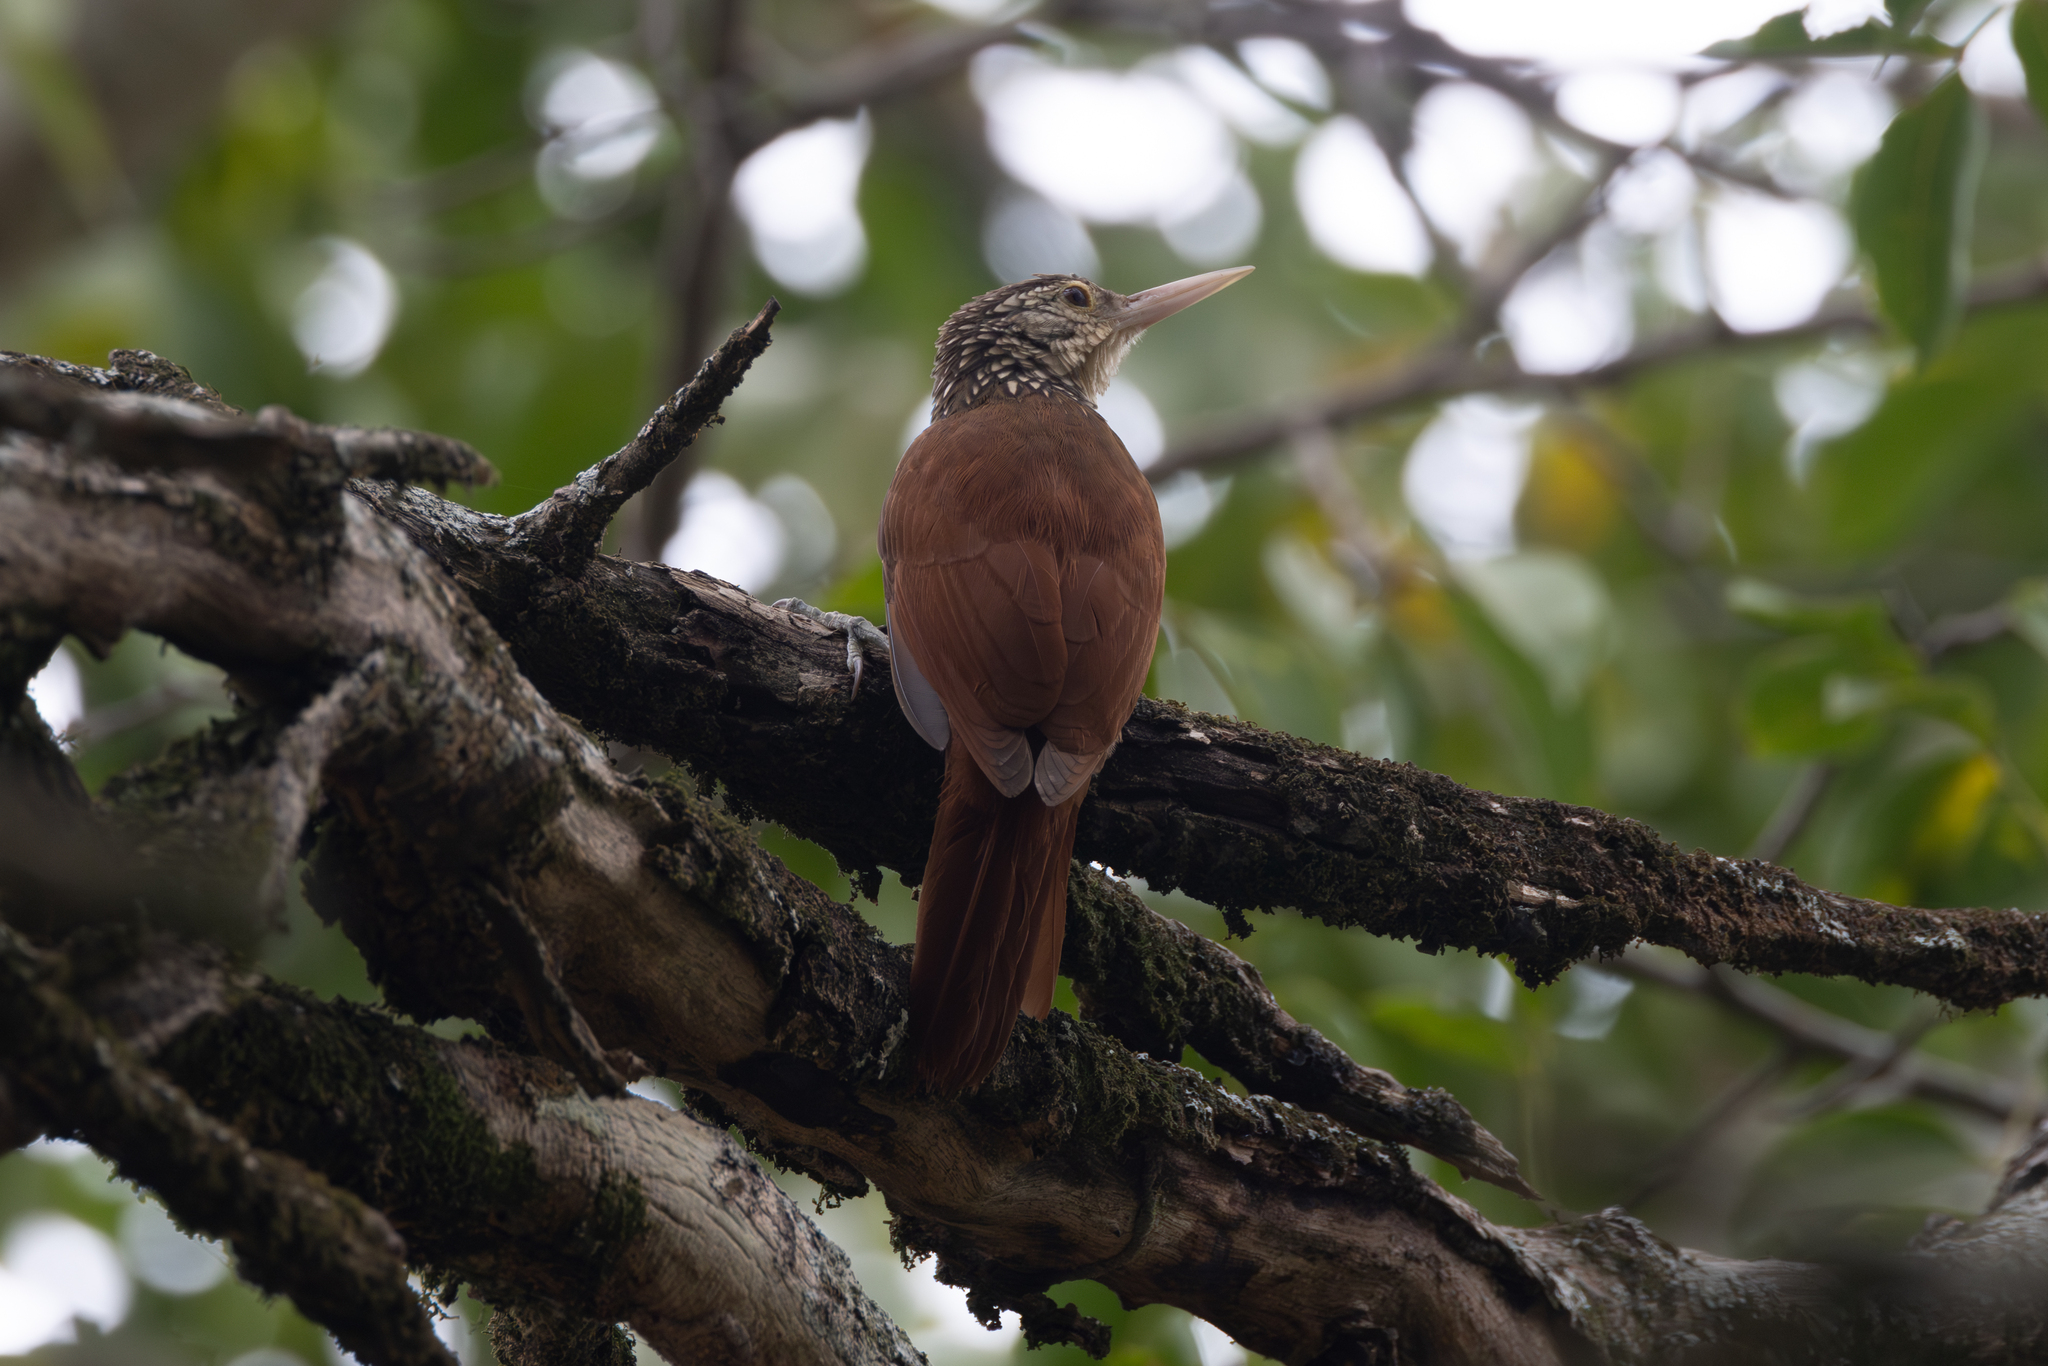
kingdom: Animalia
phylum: Chordata
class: Aves
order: Passeriformes
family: Furnariidae
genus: Xiphorhynchus
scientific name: Xiphorhynchus picus
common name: Straight-billed woodcreeper
